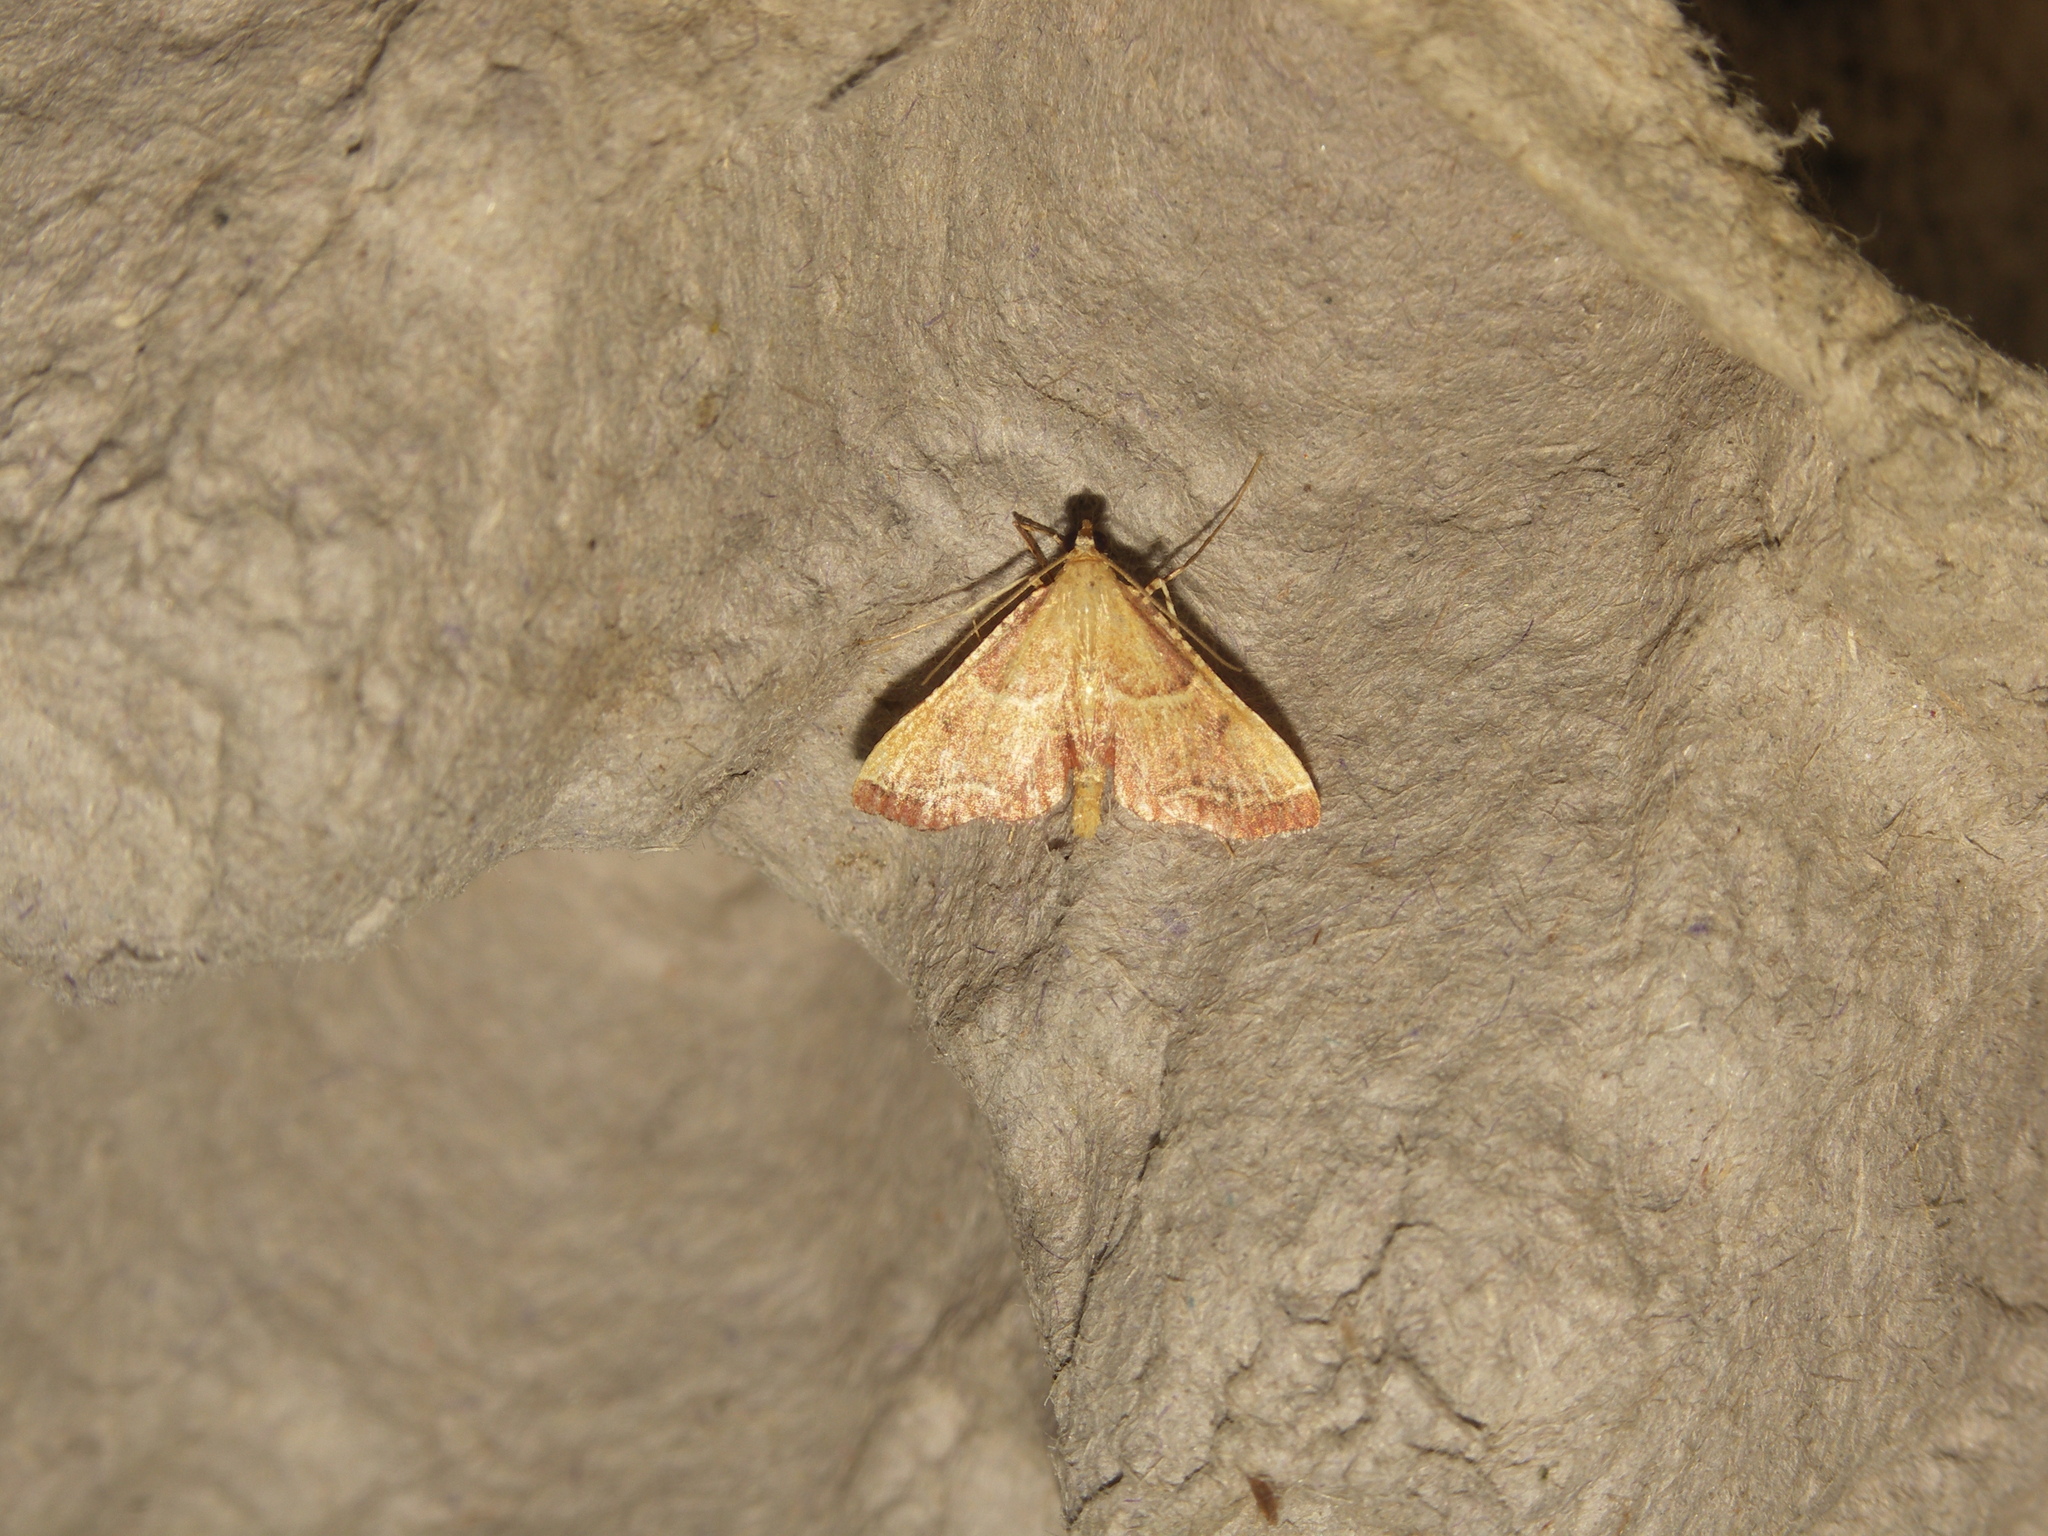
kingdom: Animalia
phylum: Arthropoda
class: Insecta
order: Lepidoptera
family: Pyralidae
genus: Endotricha
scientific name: Endotricha flammealis
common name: Rosy tabby
